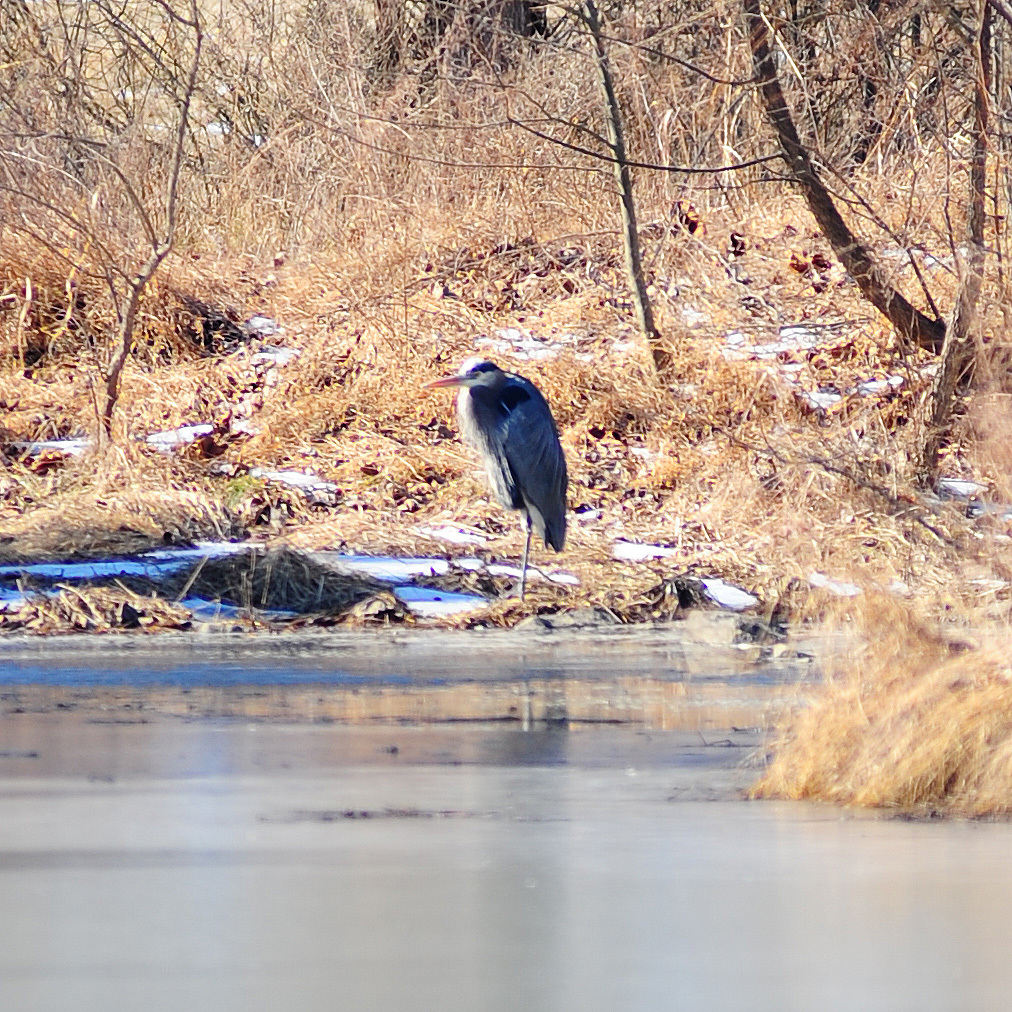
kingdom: Animalia
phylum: Chordata
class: Aves
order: Pelecaniformes
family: Ardeidae
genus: Ardea
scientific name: Ardea herodias
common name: Great blue heron
